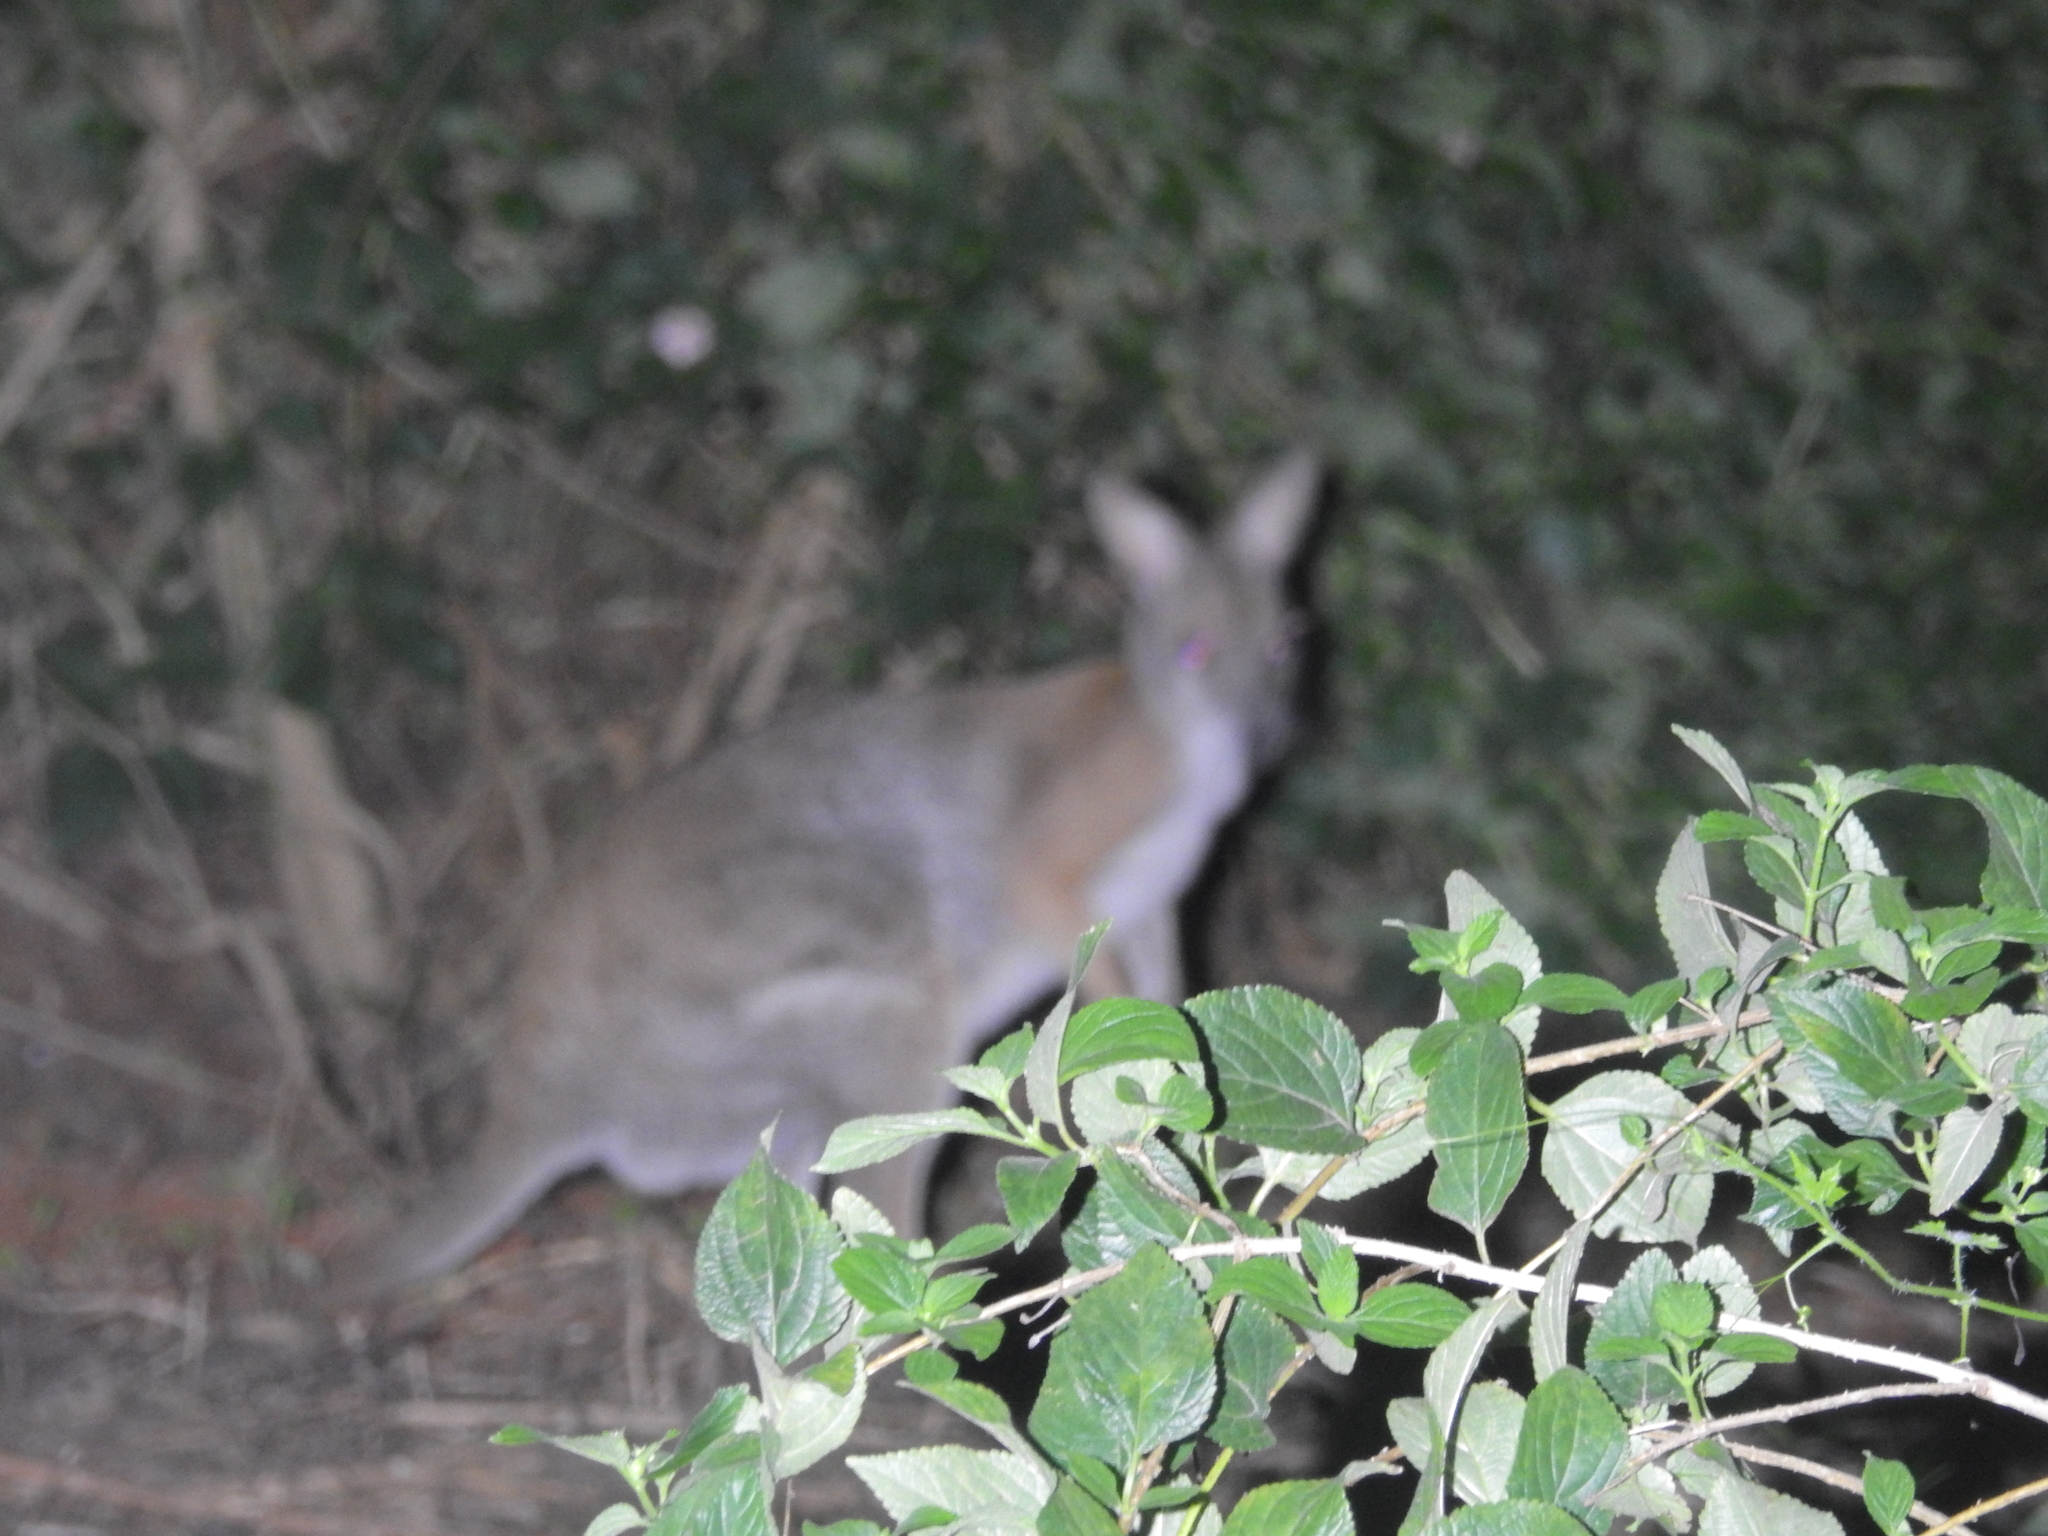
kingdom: Animalia
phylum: Chordata
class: Mammalia
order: Diprotodontia
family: Macropodidae
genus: Macropus
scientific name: Macropus dorsalis
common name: Black-striped wallaby
